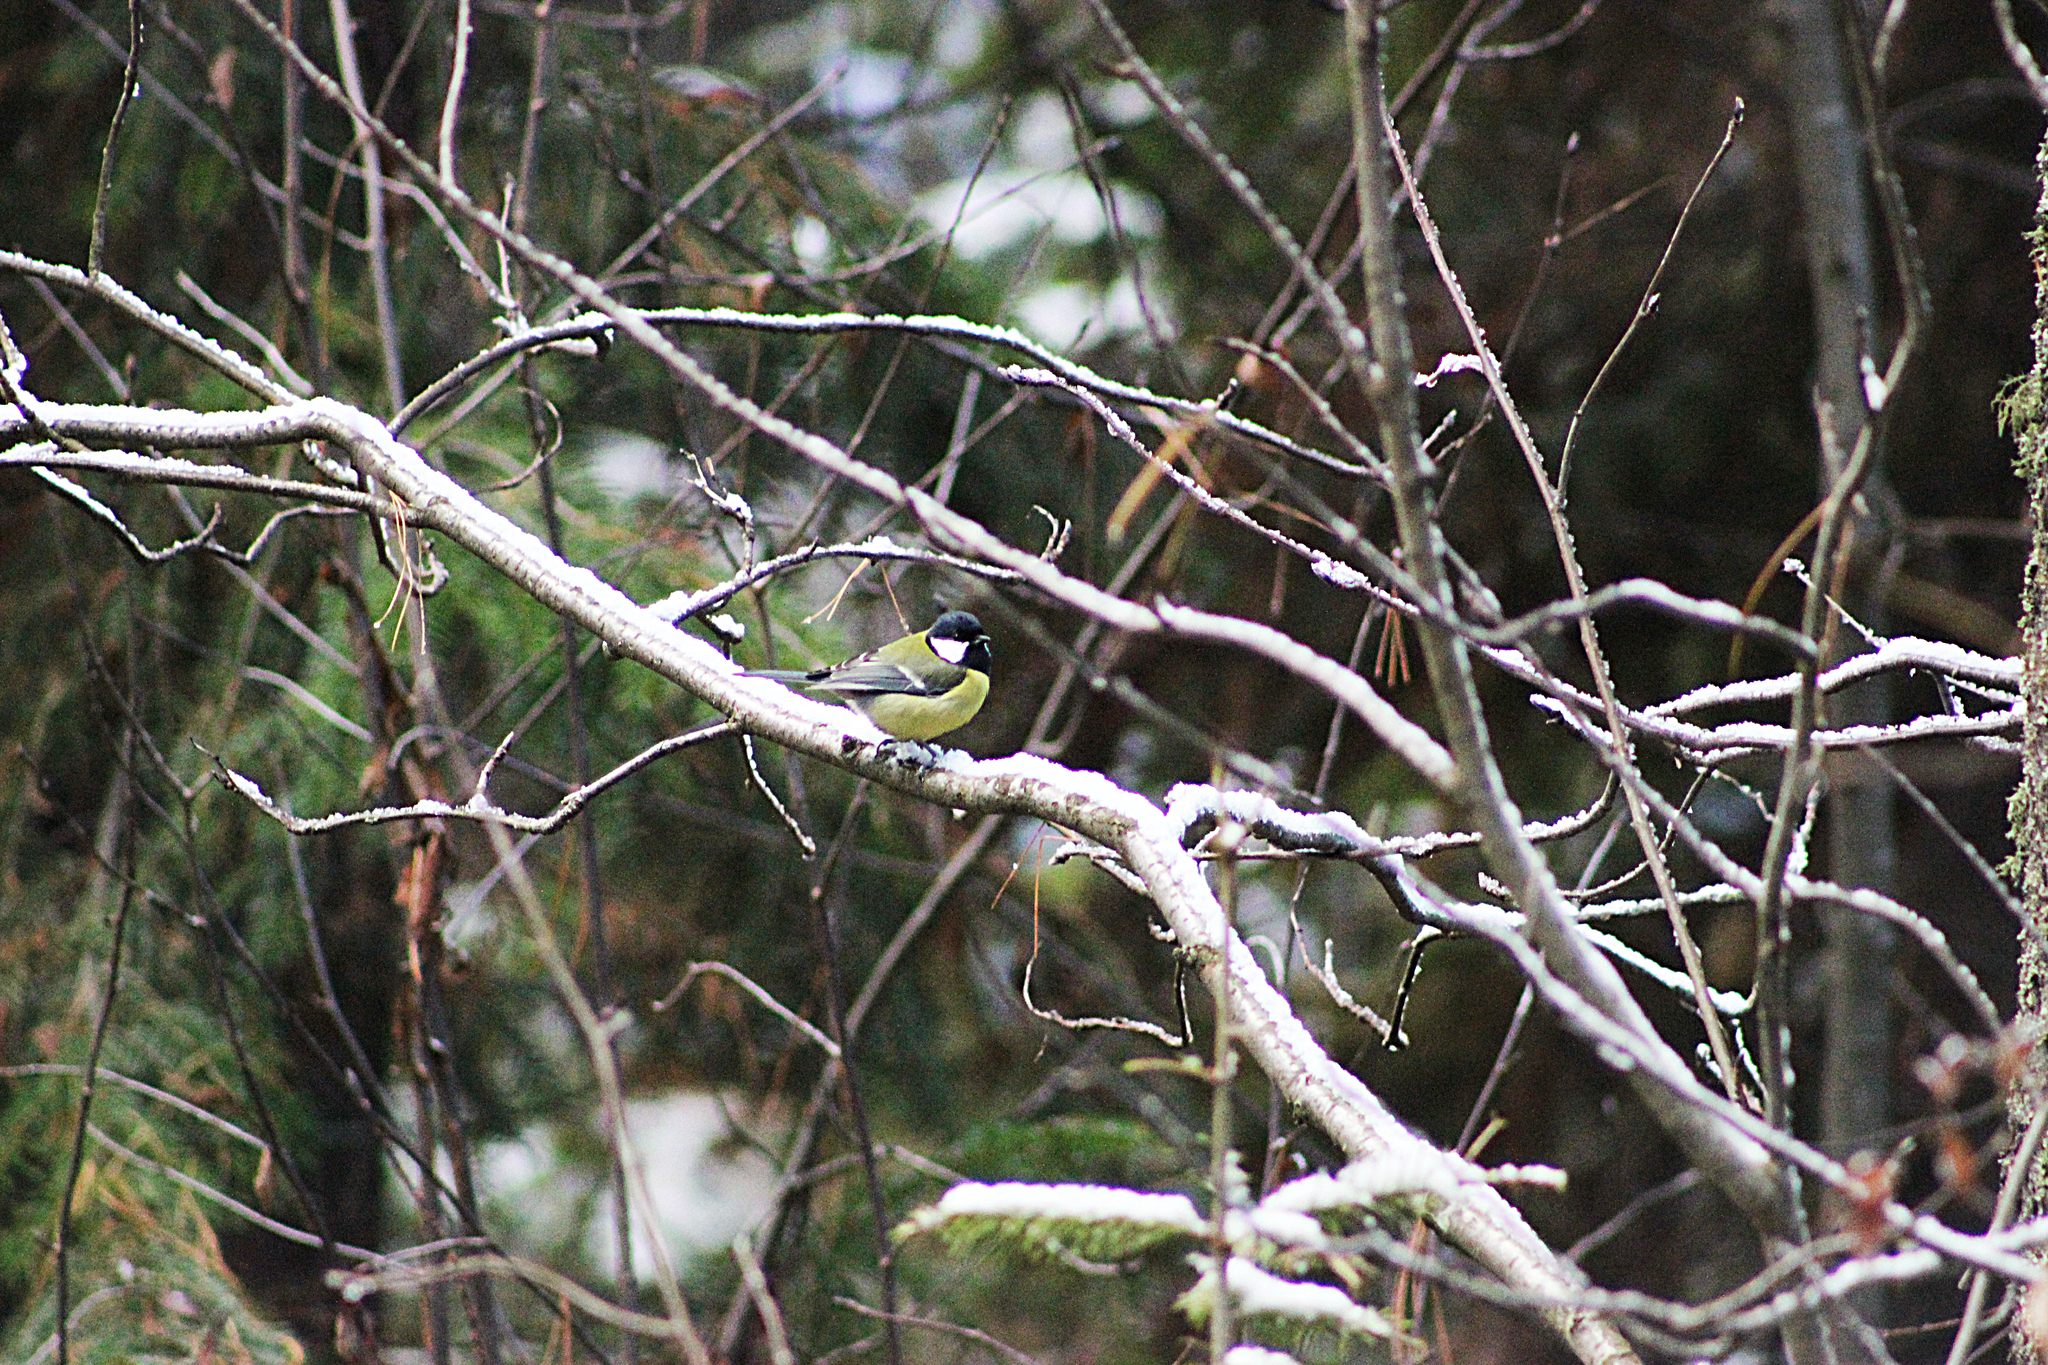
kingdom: Animalia
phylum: Chordata
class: Aves
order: Passeriformes
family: Paridae
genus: Parus
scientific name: Parus major
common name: Great tit
